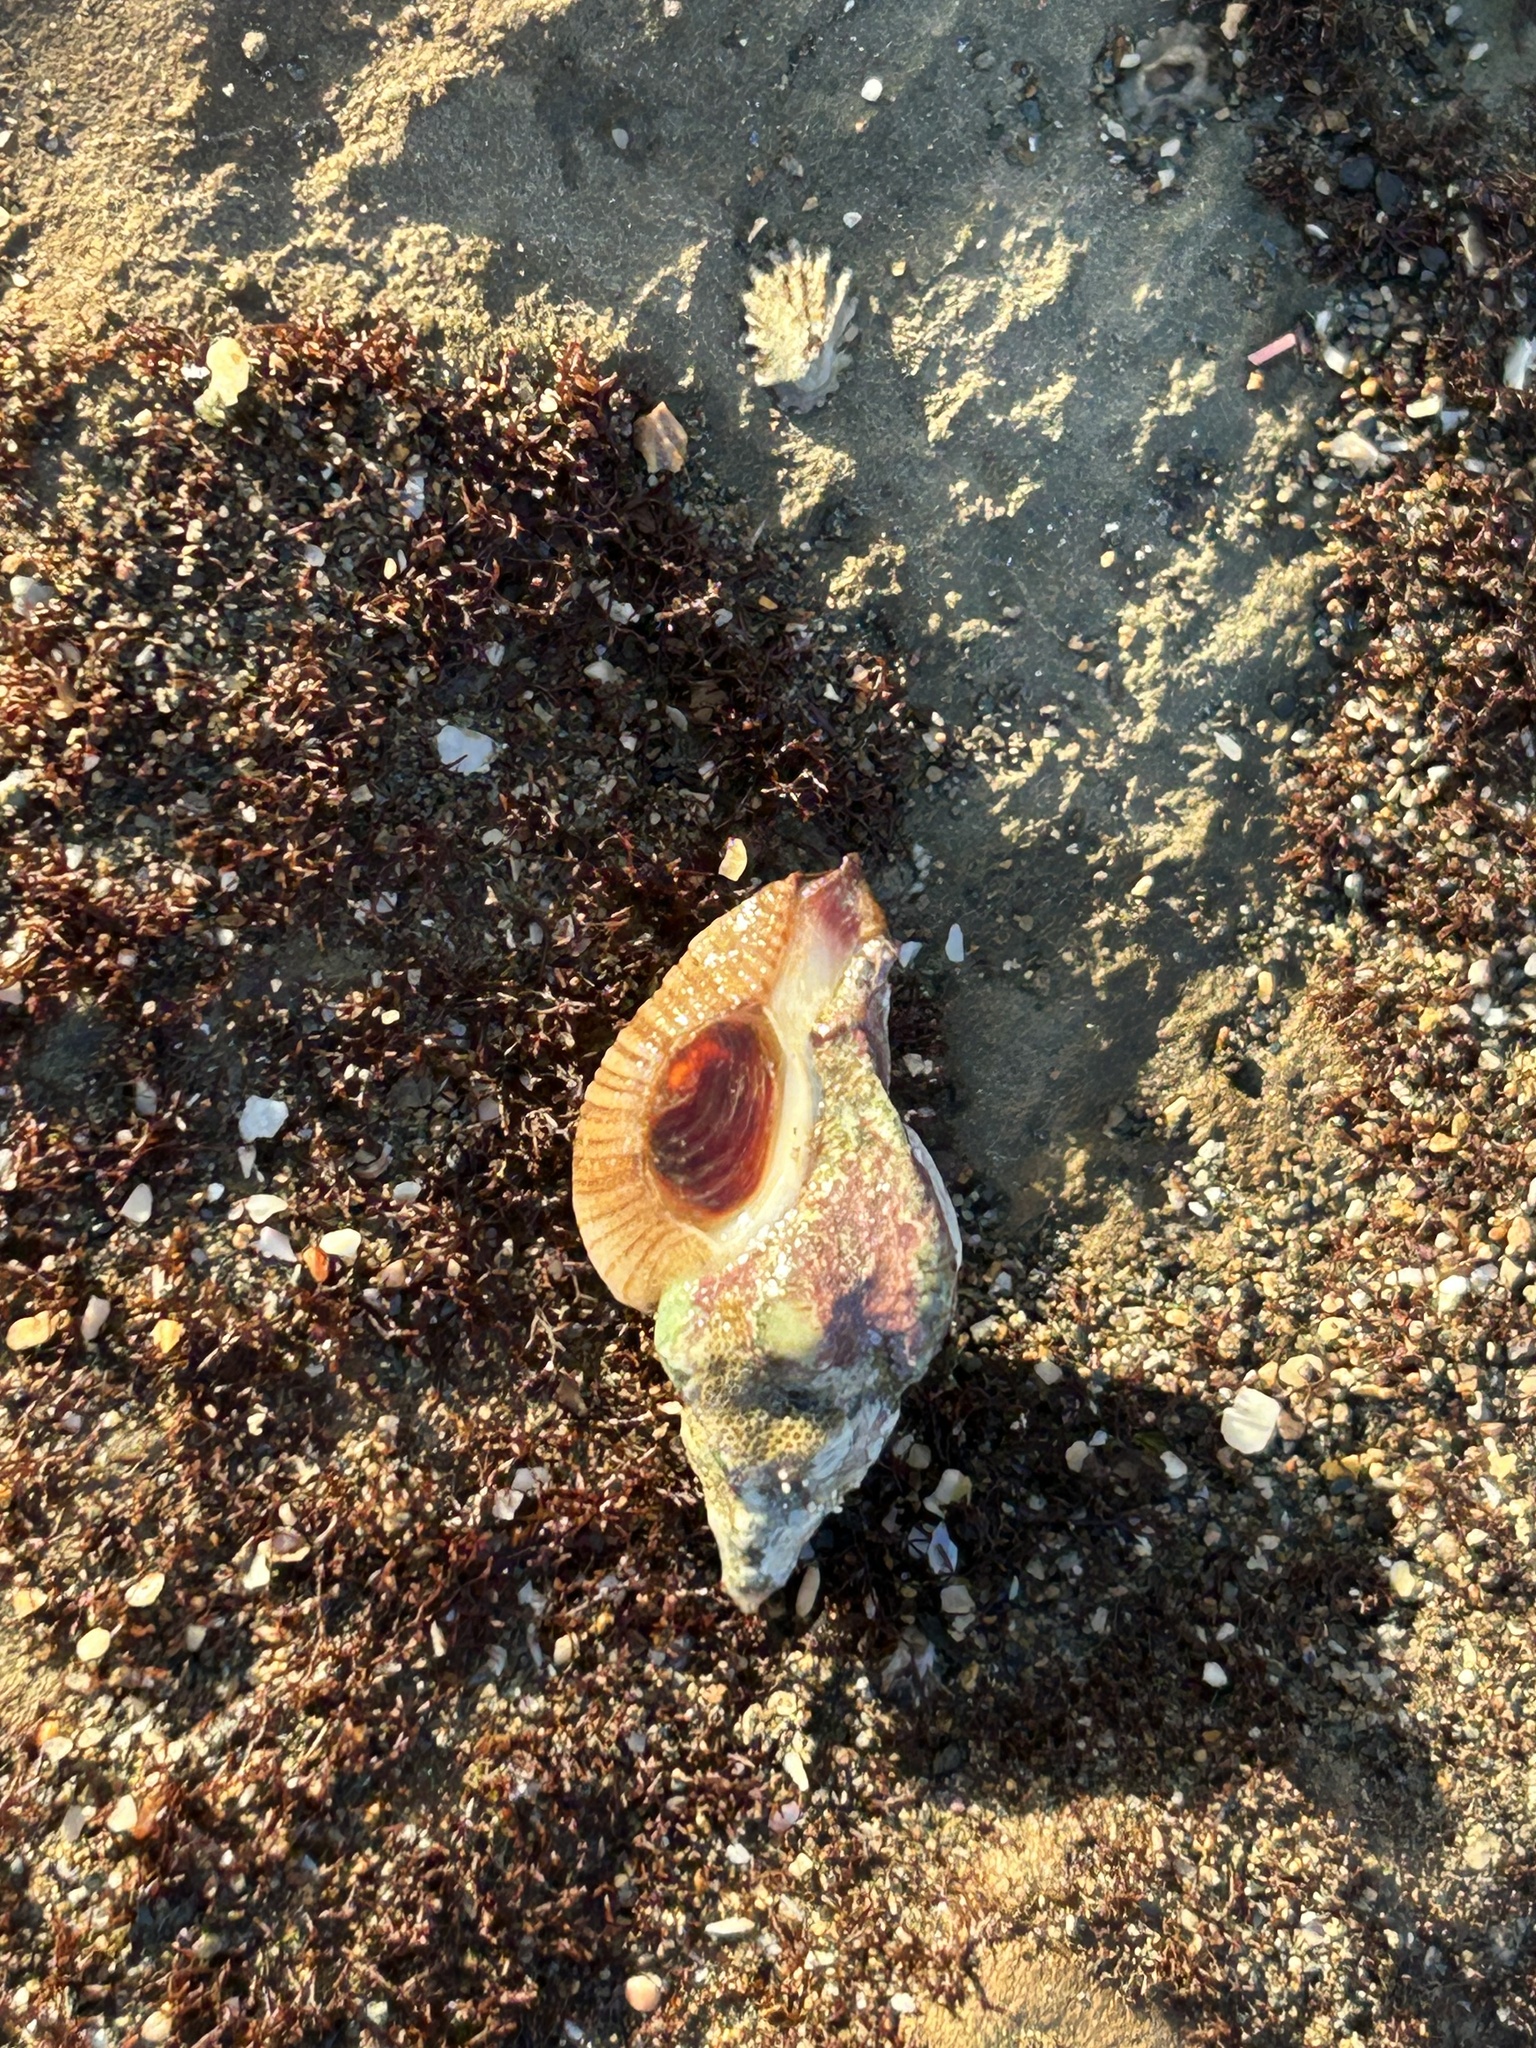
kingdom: Animalia
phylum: Mollusca
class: Gastropoda
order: Neogastropoda
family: Muricidae
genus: Pteropurpura
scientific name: Pteropurpura festiva
